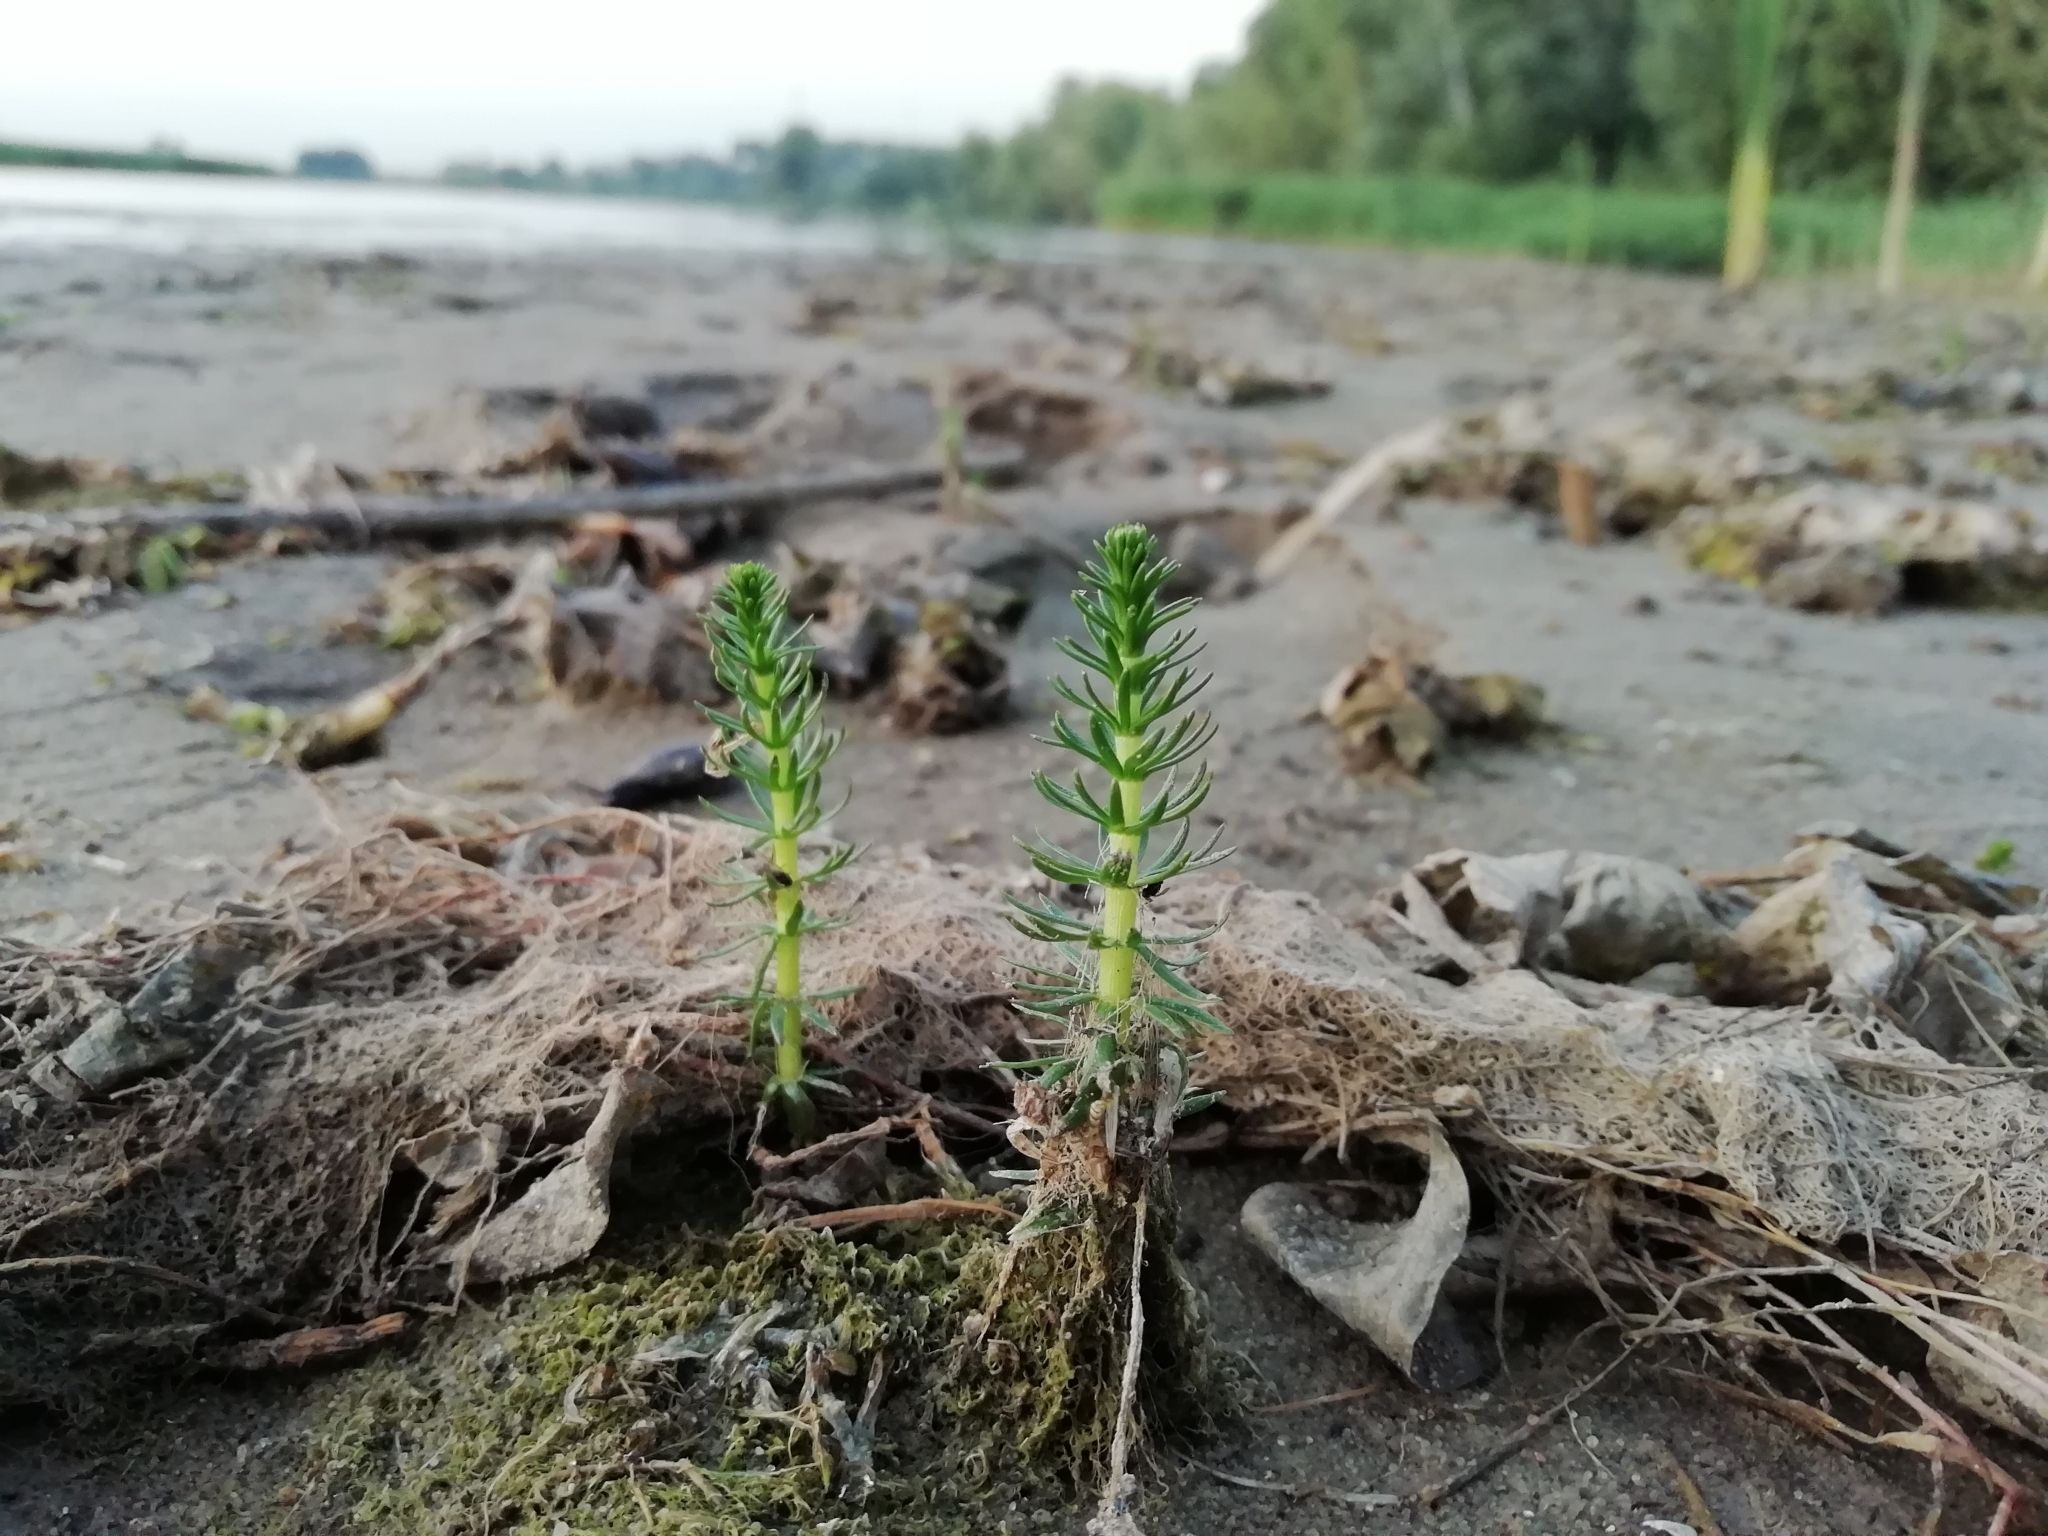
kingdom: Plantae
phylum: Tracheophyta
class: Magnoliopsida
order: Lamiales
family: Plantaginaceae
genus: Hippuris
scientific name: Hippuris vulgaris
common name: Mare's-tail
